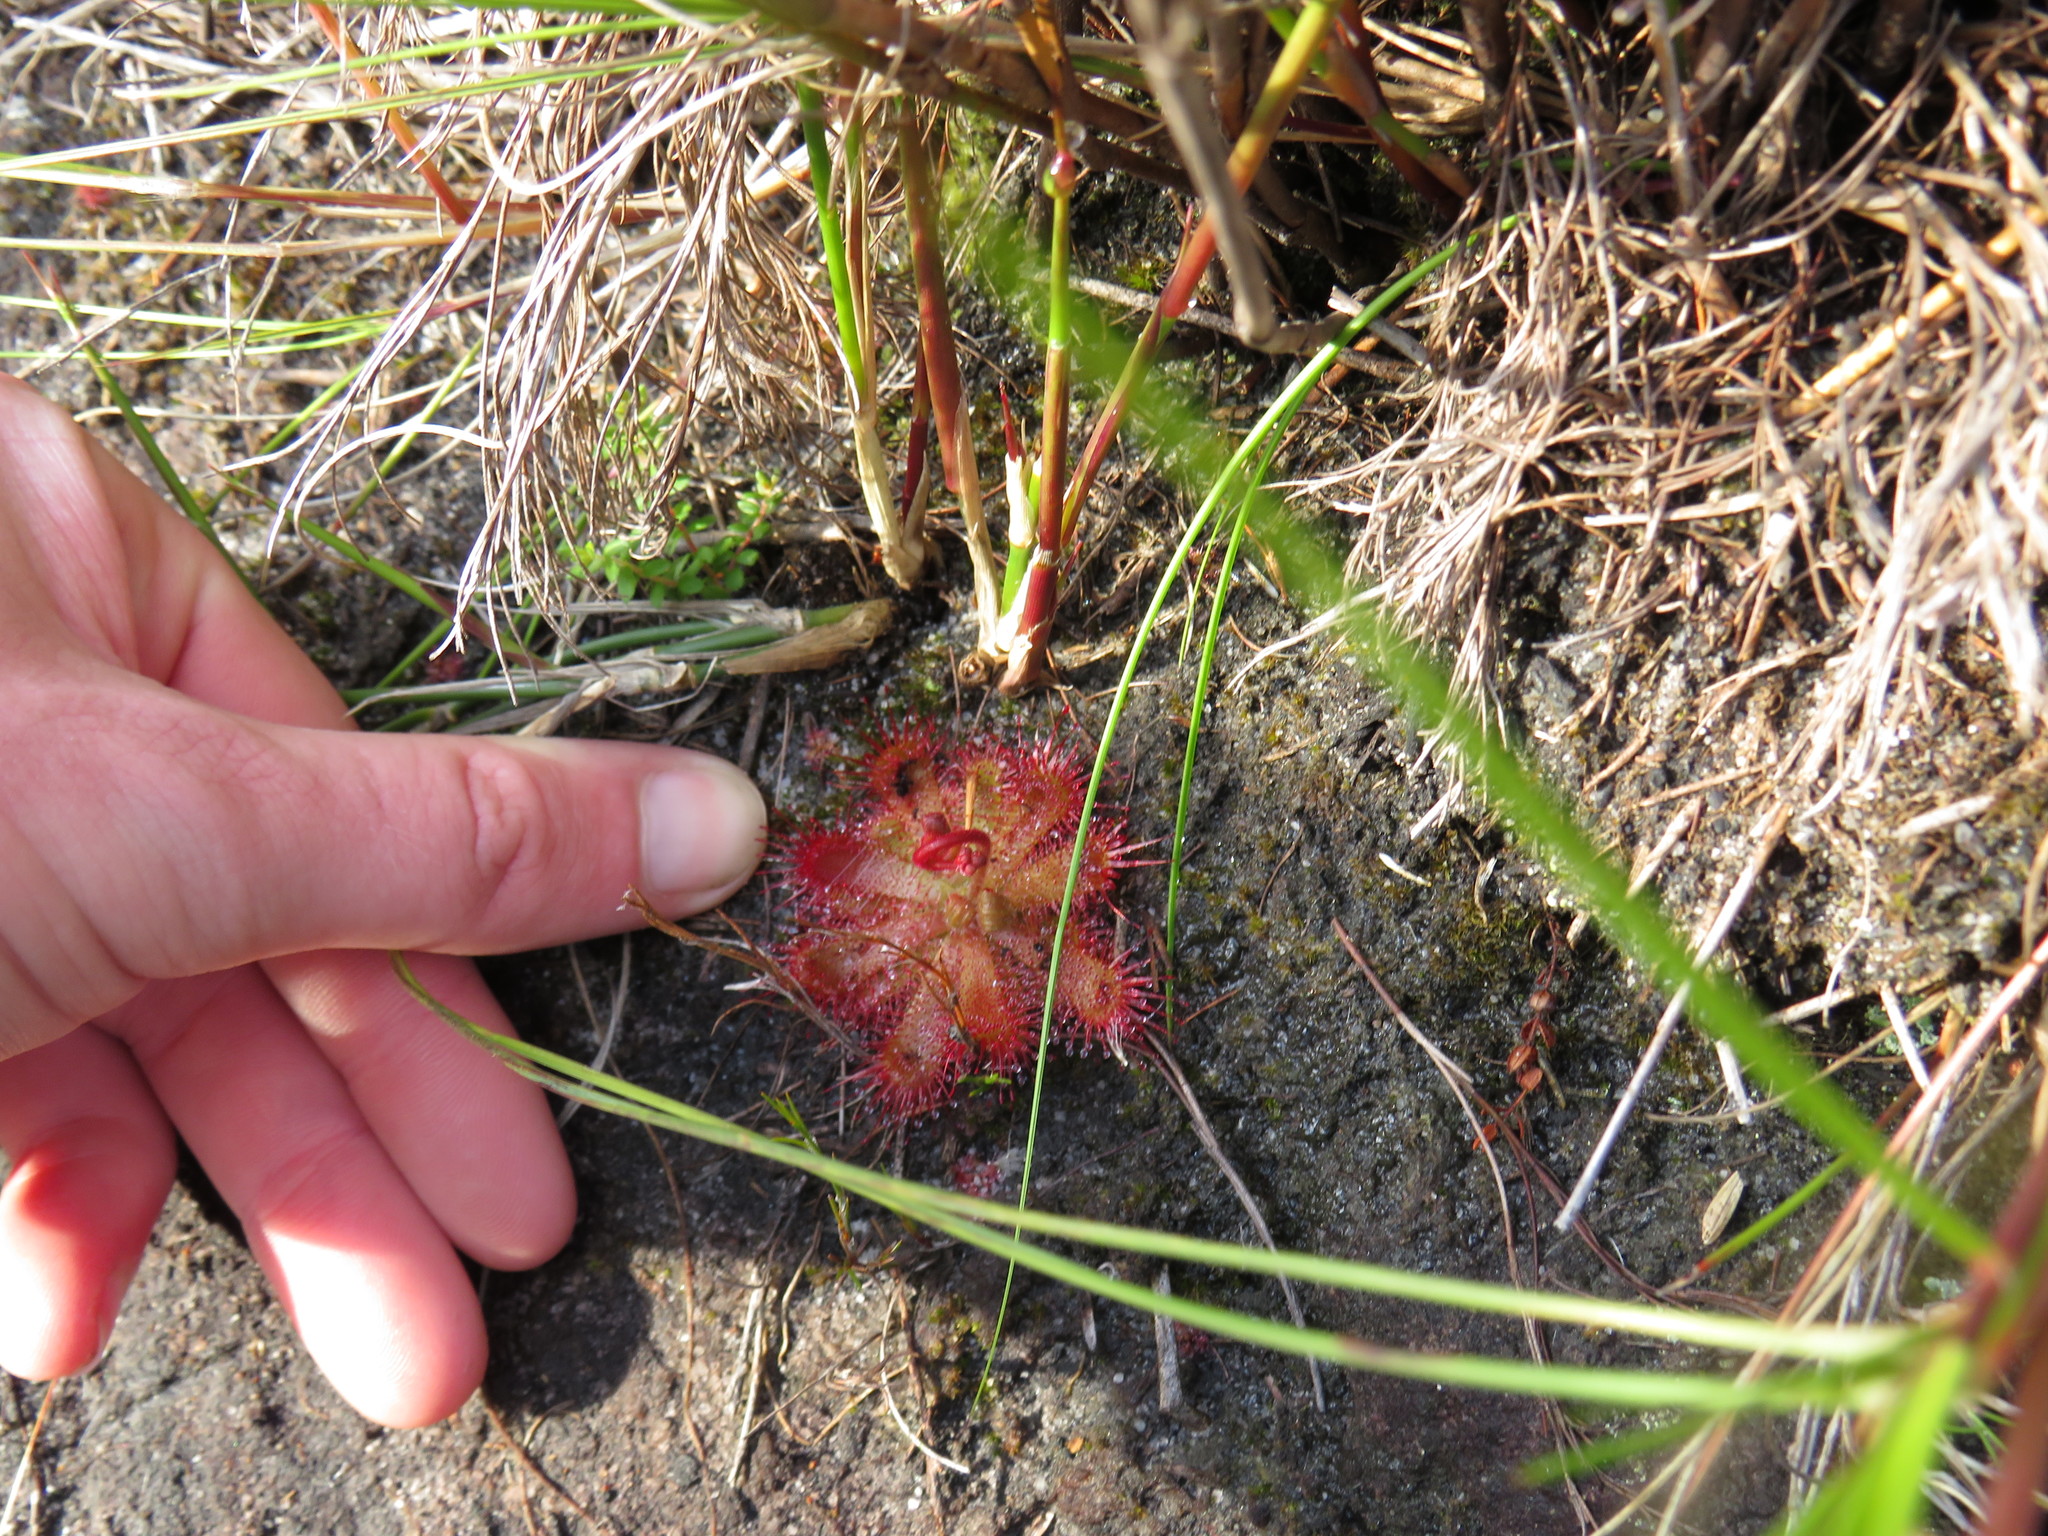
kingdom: Plantae
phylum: Tracheophyta
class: Magnoliopsida
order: Caryophyllales
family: Droseraceae
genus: Drosera
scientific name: Drosera trinervia
